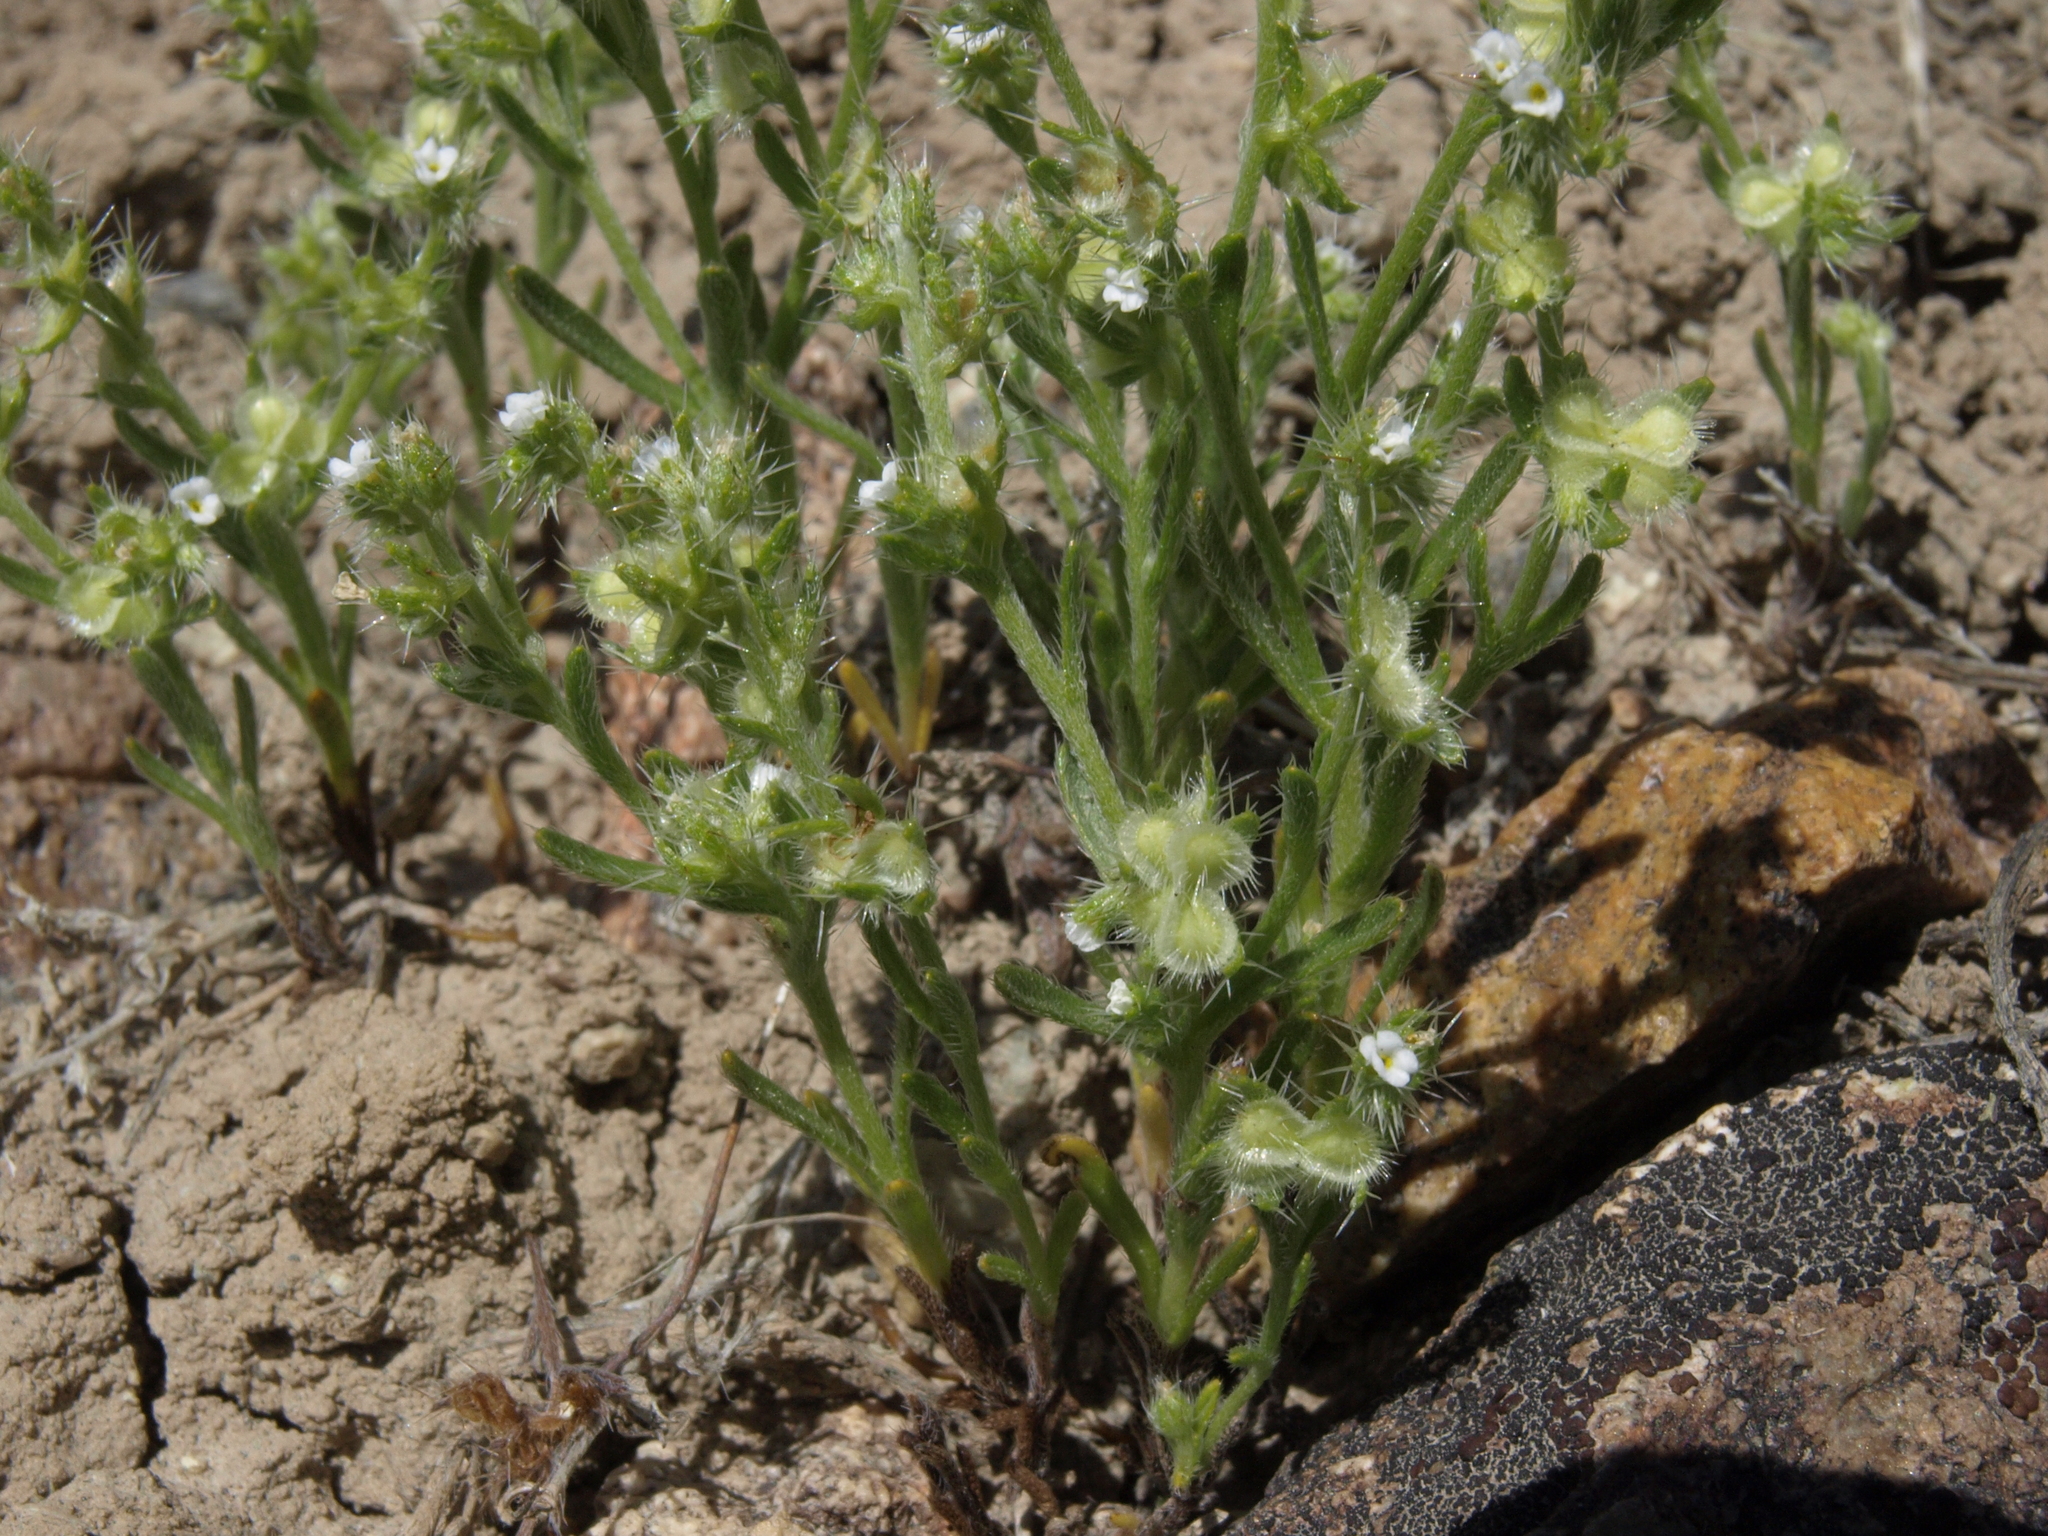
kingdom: Plantae
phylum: Tracheophyta
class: Magnoliopsida
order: Boraginales
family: Boraginaceae
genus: Pectocarya
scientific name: Pectocarya setosa
